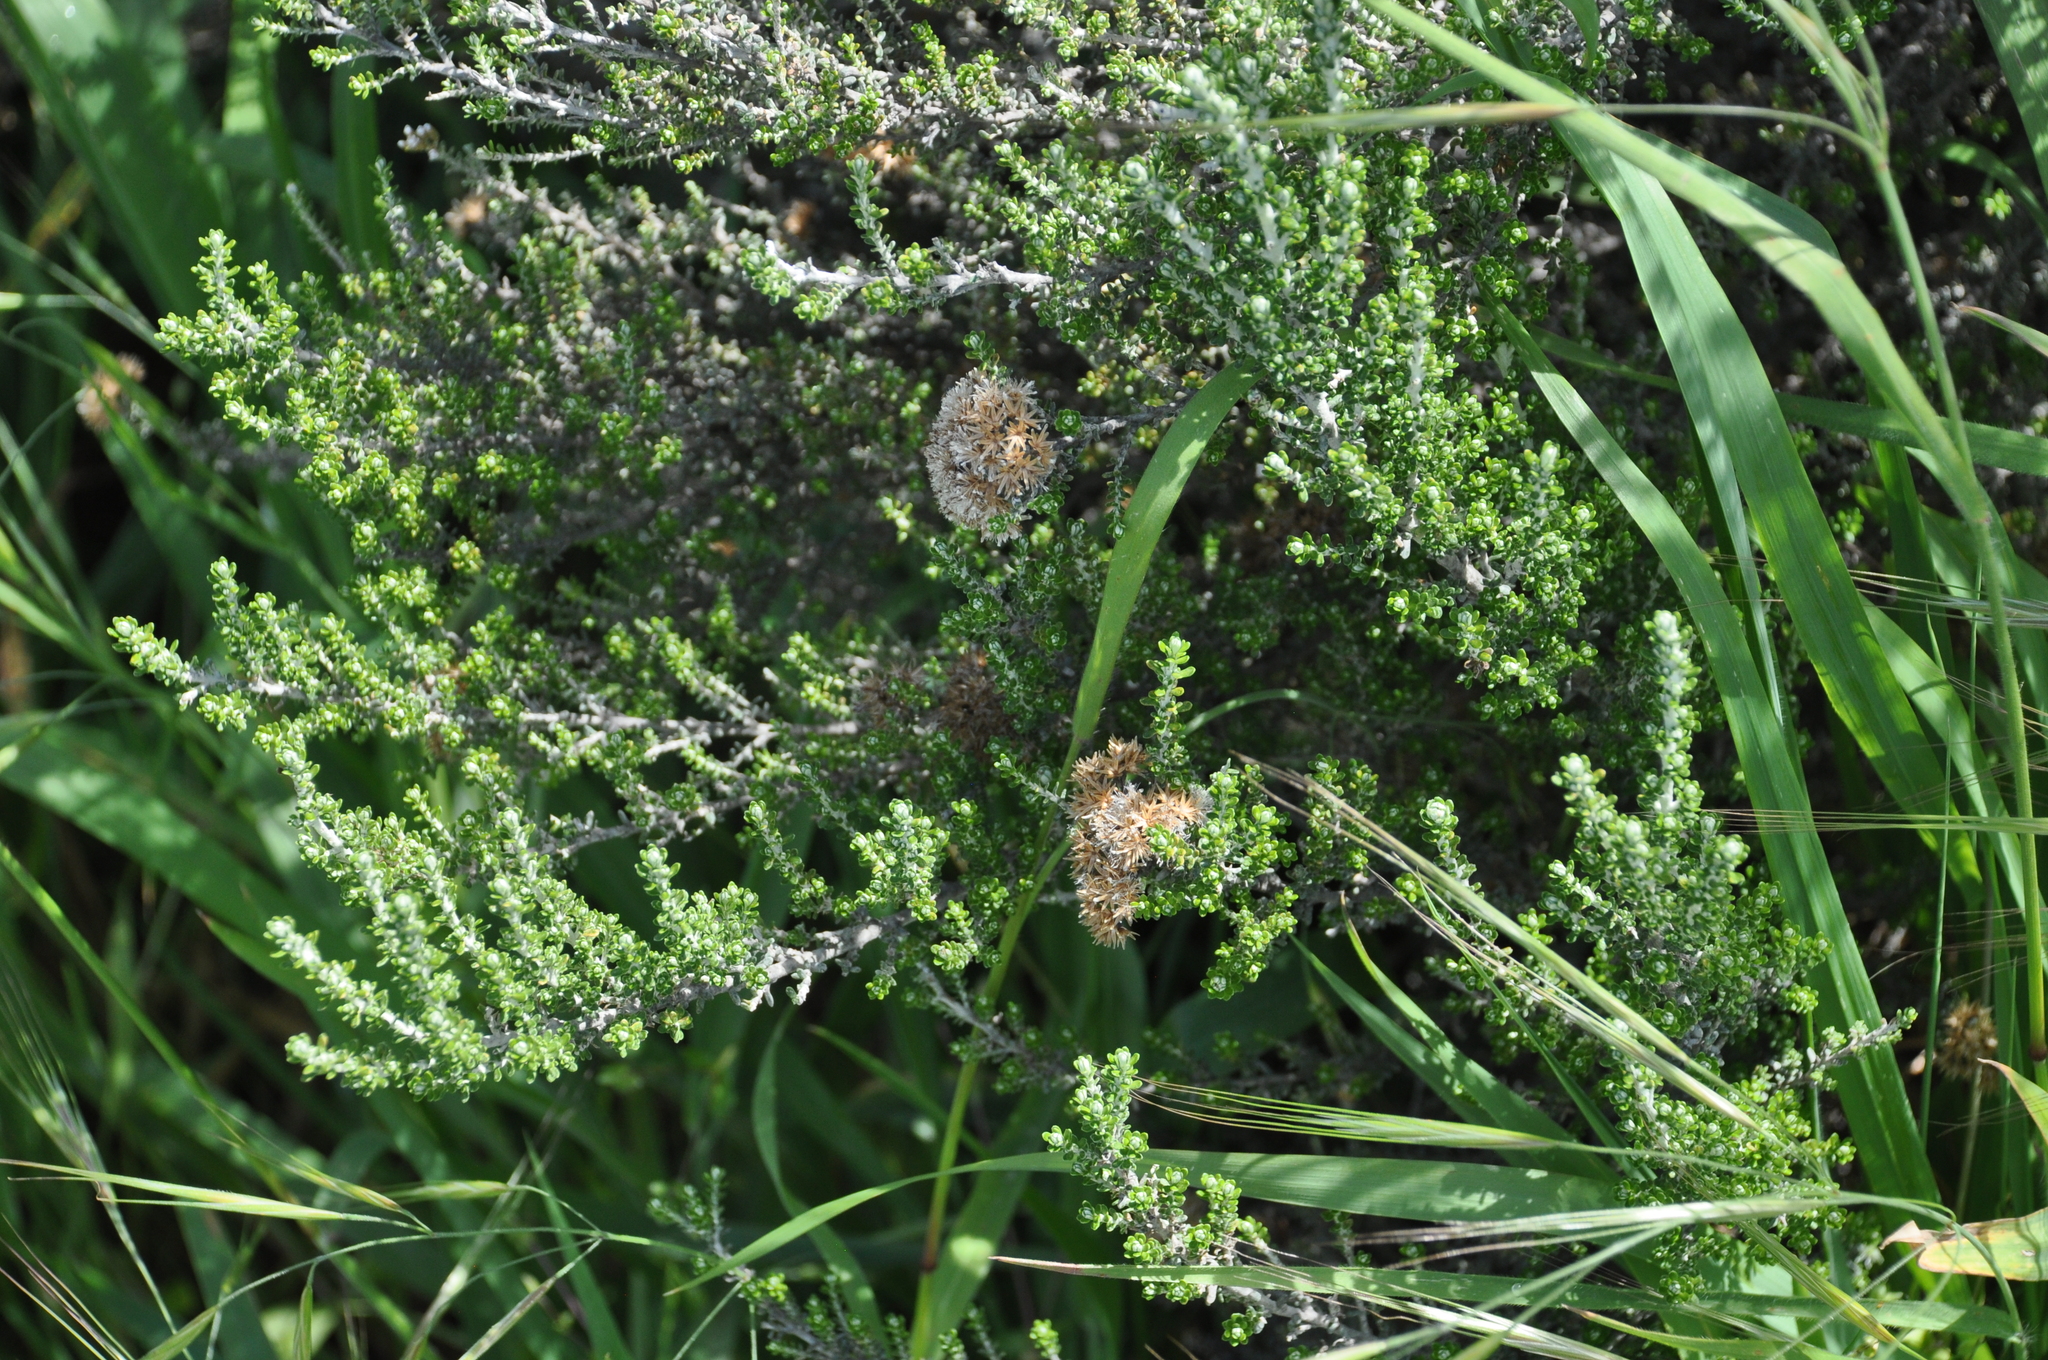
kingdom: Plantae
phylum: Tracheophyta
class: Magnoliopsida
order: Asterales
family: Asteraceae
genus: Ozothamnus
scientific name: Ozothamnus leptophyllus
